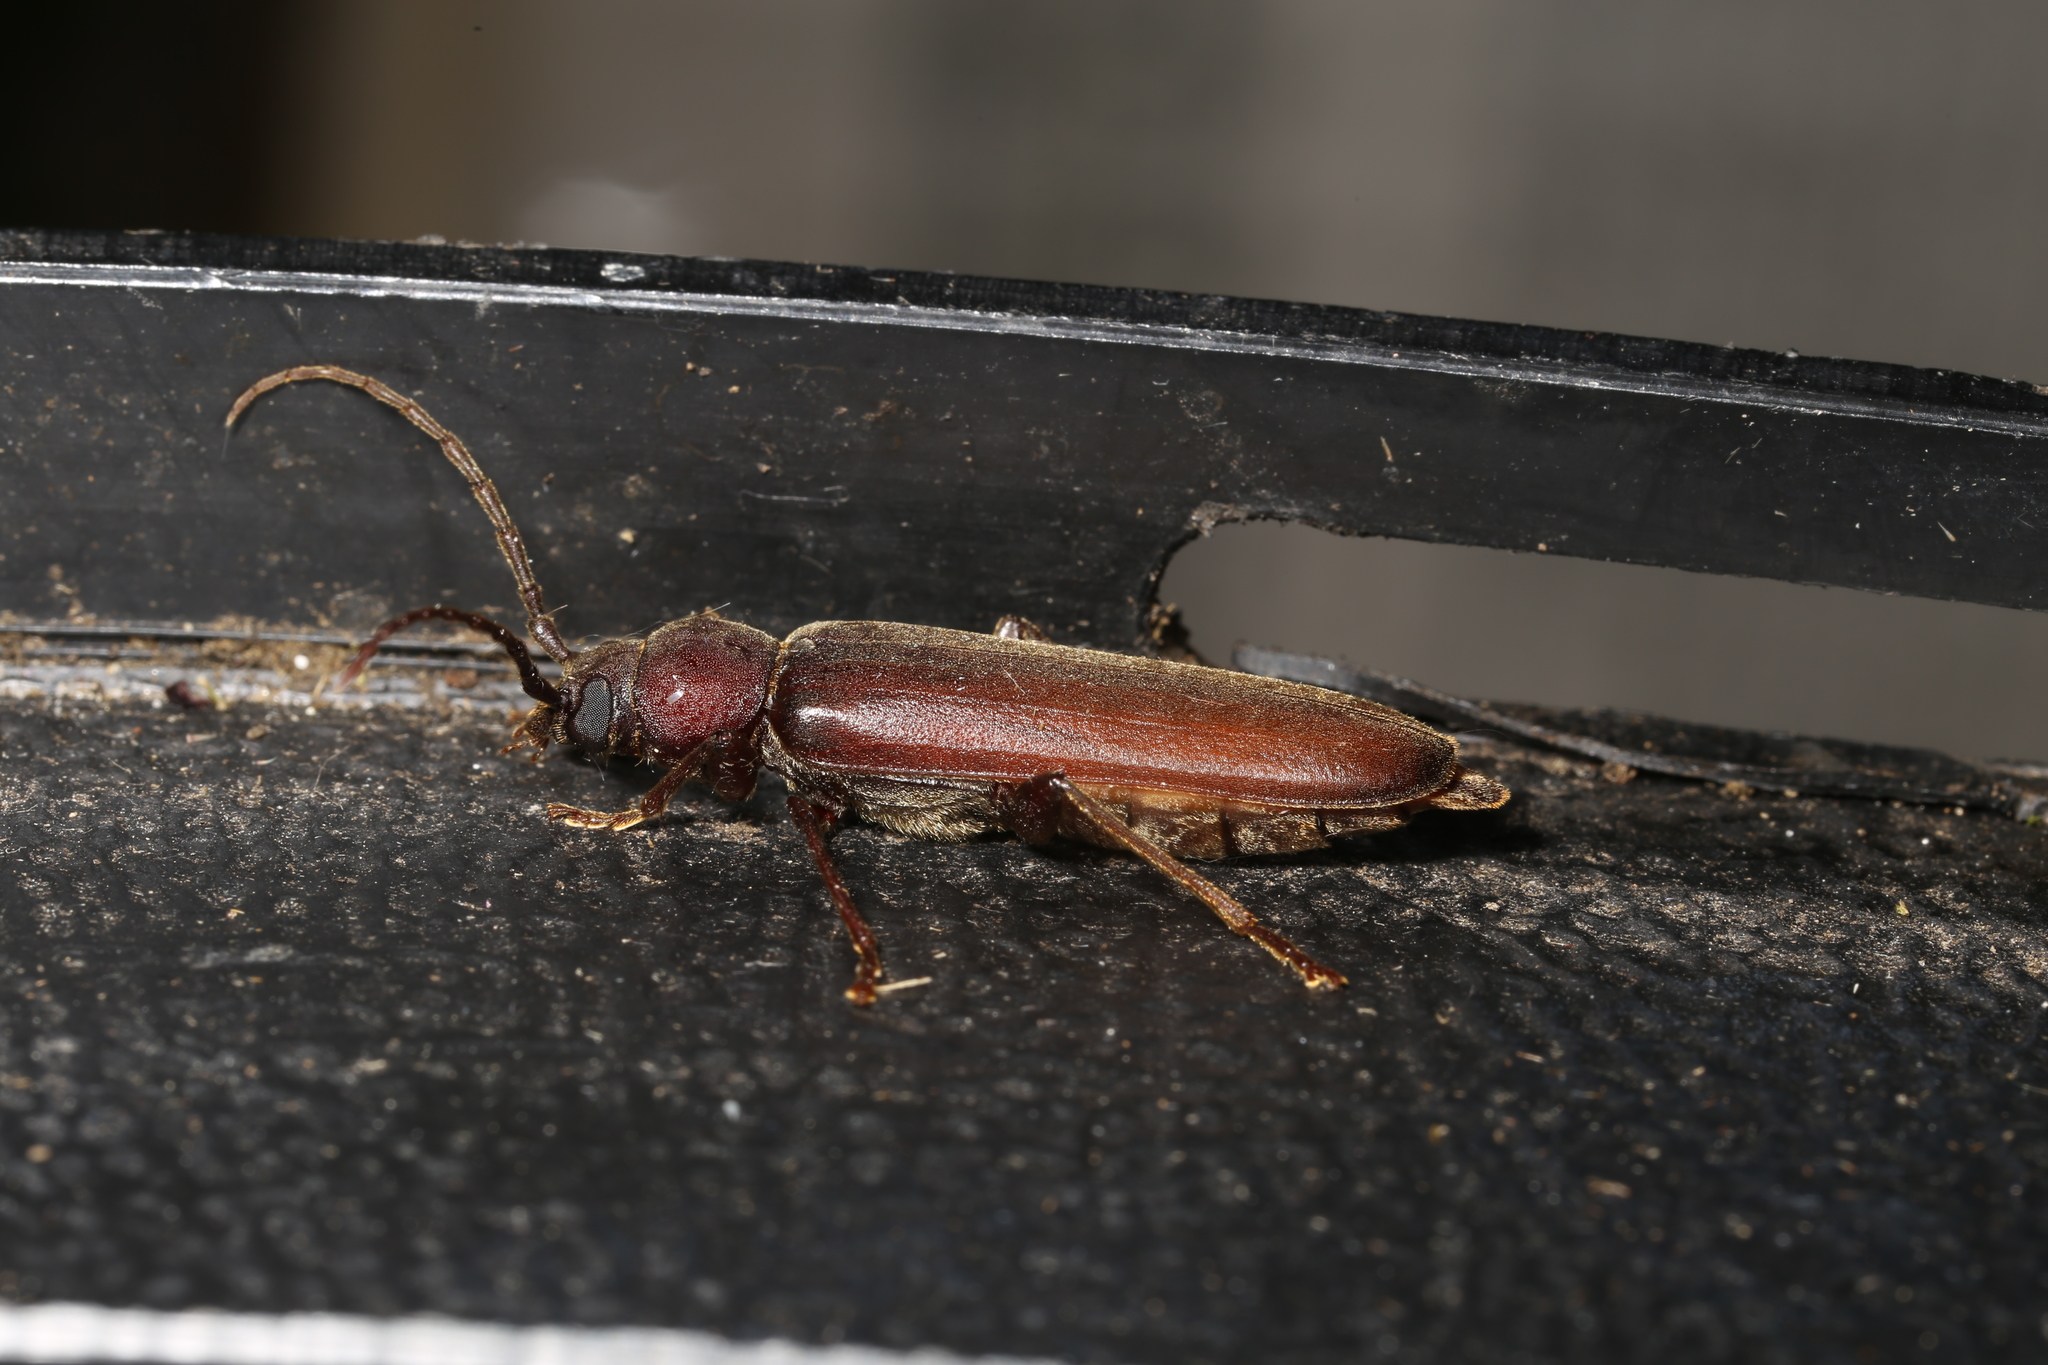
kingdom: Animalia
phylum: Arthropoda
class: Insecta
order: Coleoptera
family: Cerambycidae
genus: Arhopalus
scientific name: Arhopalus rusticus
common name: Rust pine borer
